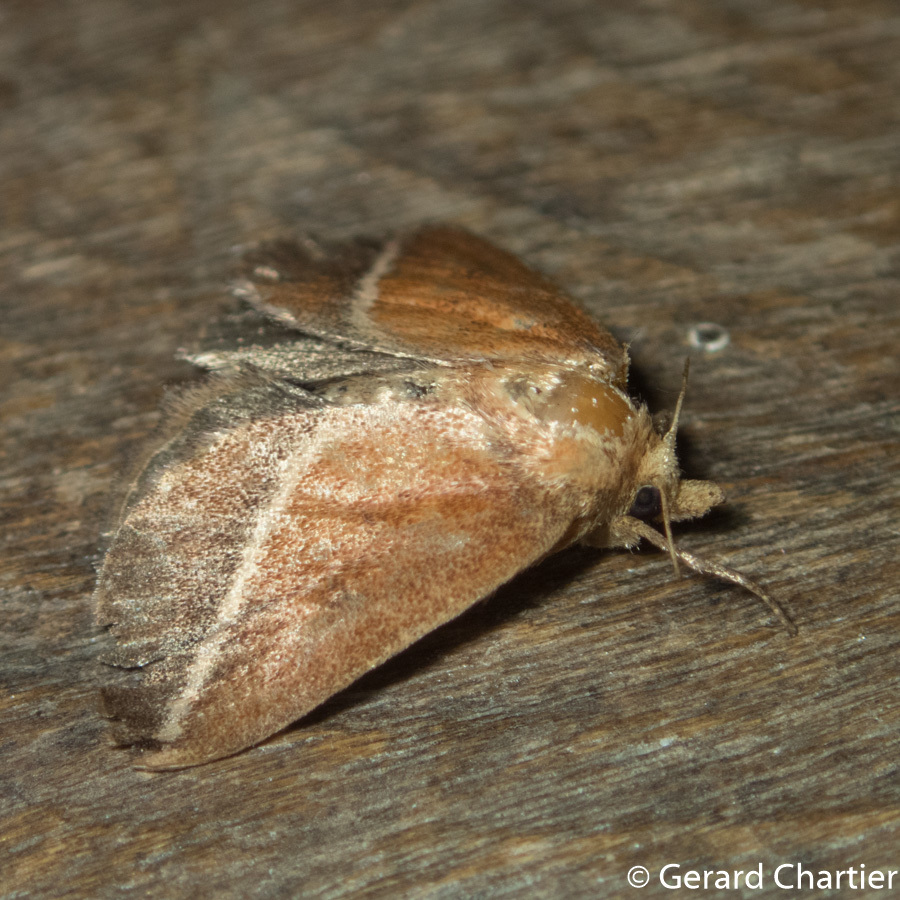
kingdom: Animalia
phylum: Arthropoda
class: Insecta
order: Lepidoptera
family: Limacodidae
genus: Oxyplax
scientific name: Oxyplax pallivitta
